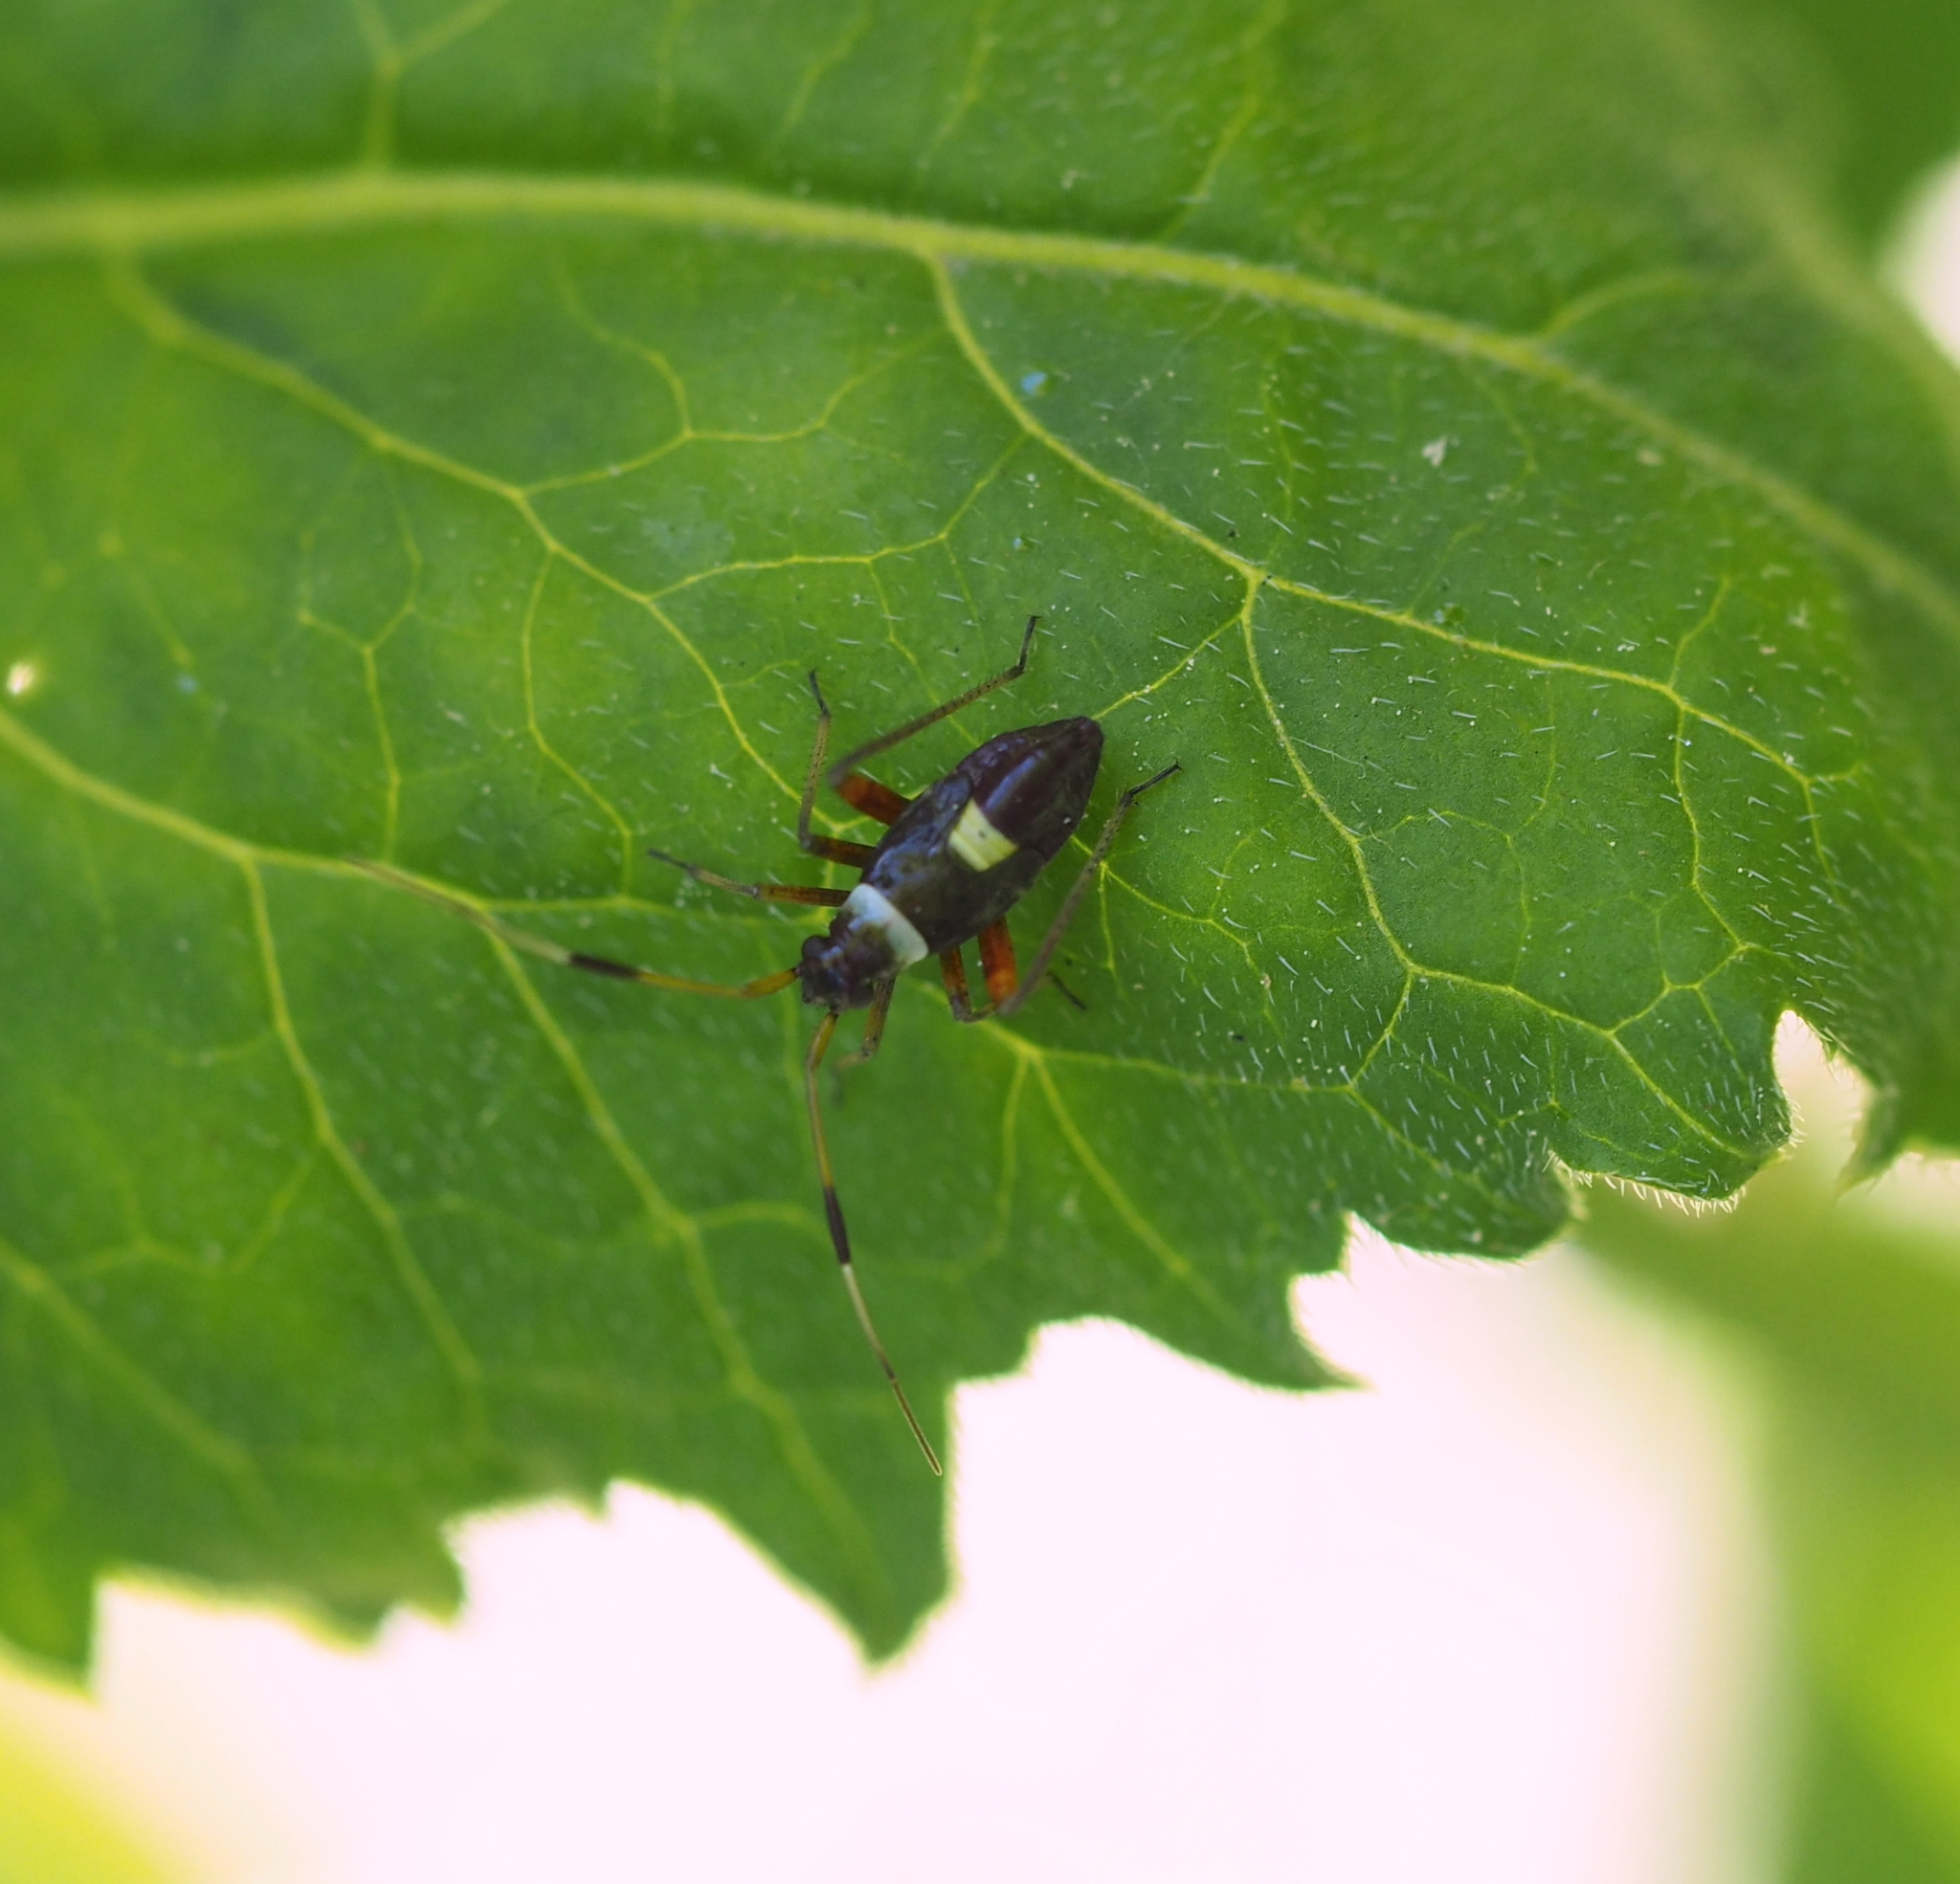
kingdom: Animalia
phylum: Arthropoda
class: Insecta
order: Hemiptera
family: Miridae
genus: Closterotomus
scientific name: Closterotomus biclavatus
